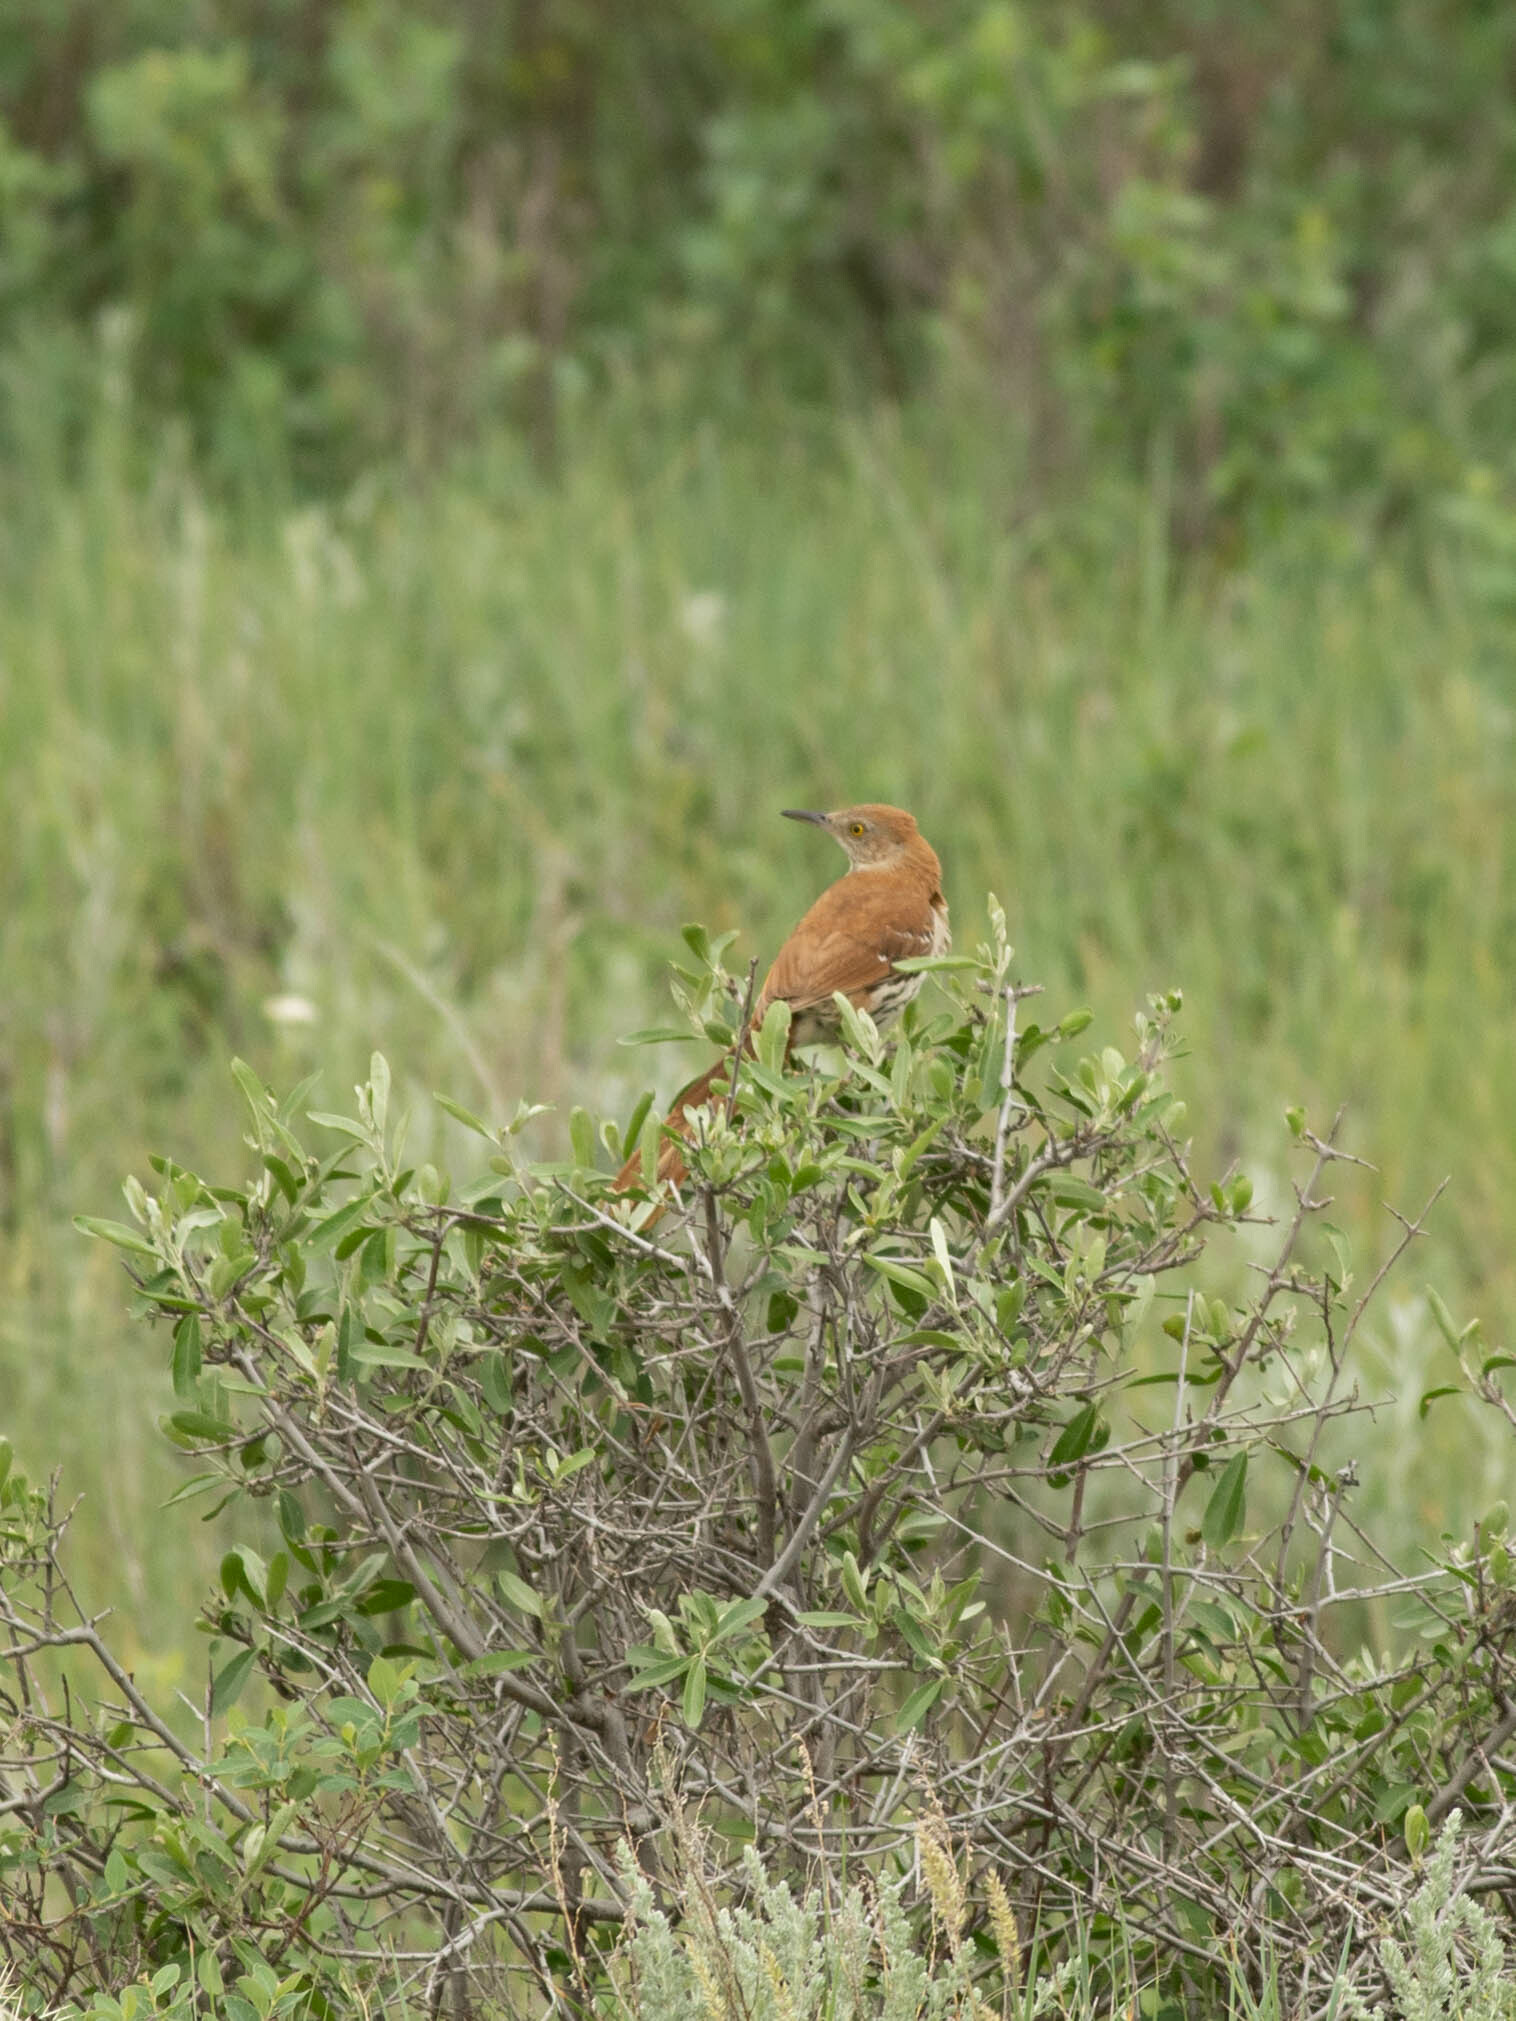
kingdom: Animalia
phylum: Chordata
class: Aves
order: Passeriformes
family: Mimidae
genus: Toxostoma
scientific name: Toxostoma rufum
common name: Brown thrasher
